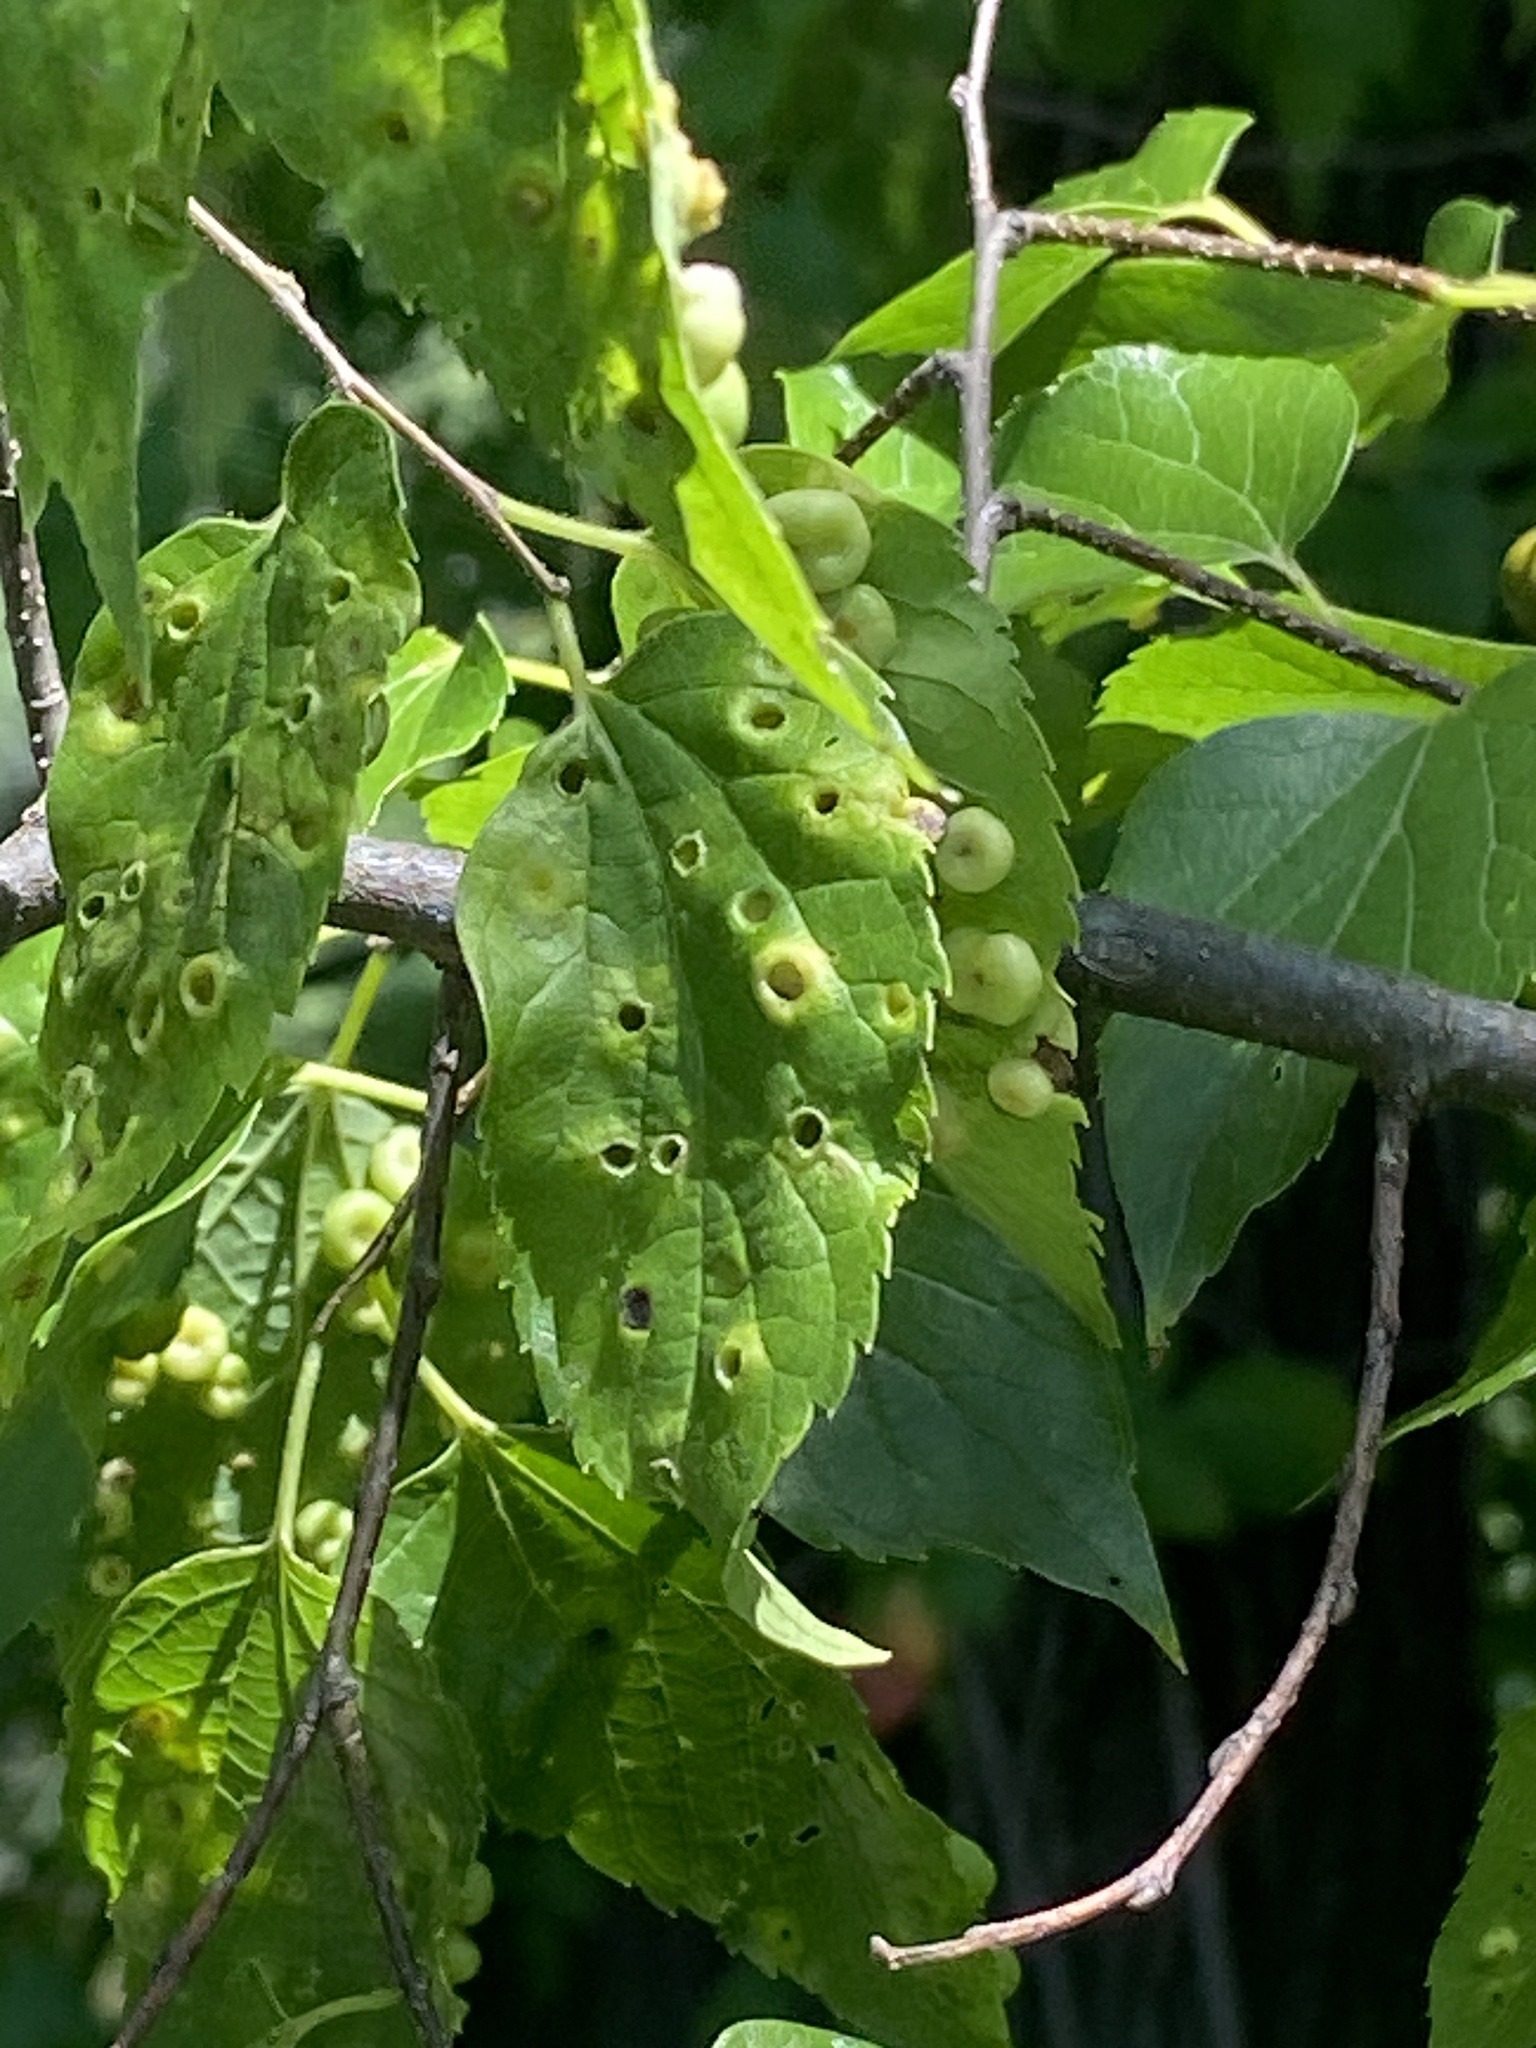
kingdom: Animalia
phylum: Arthropoda
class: Insecta
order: Hemiptera
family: Aphalaridae
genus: Pachypsylla
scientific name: Pachypsylla celtidismamma
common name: Hackberry nipplegall psyllid
